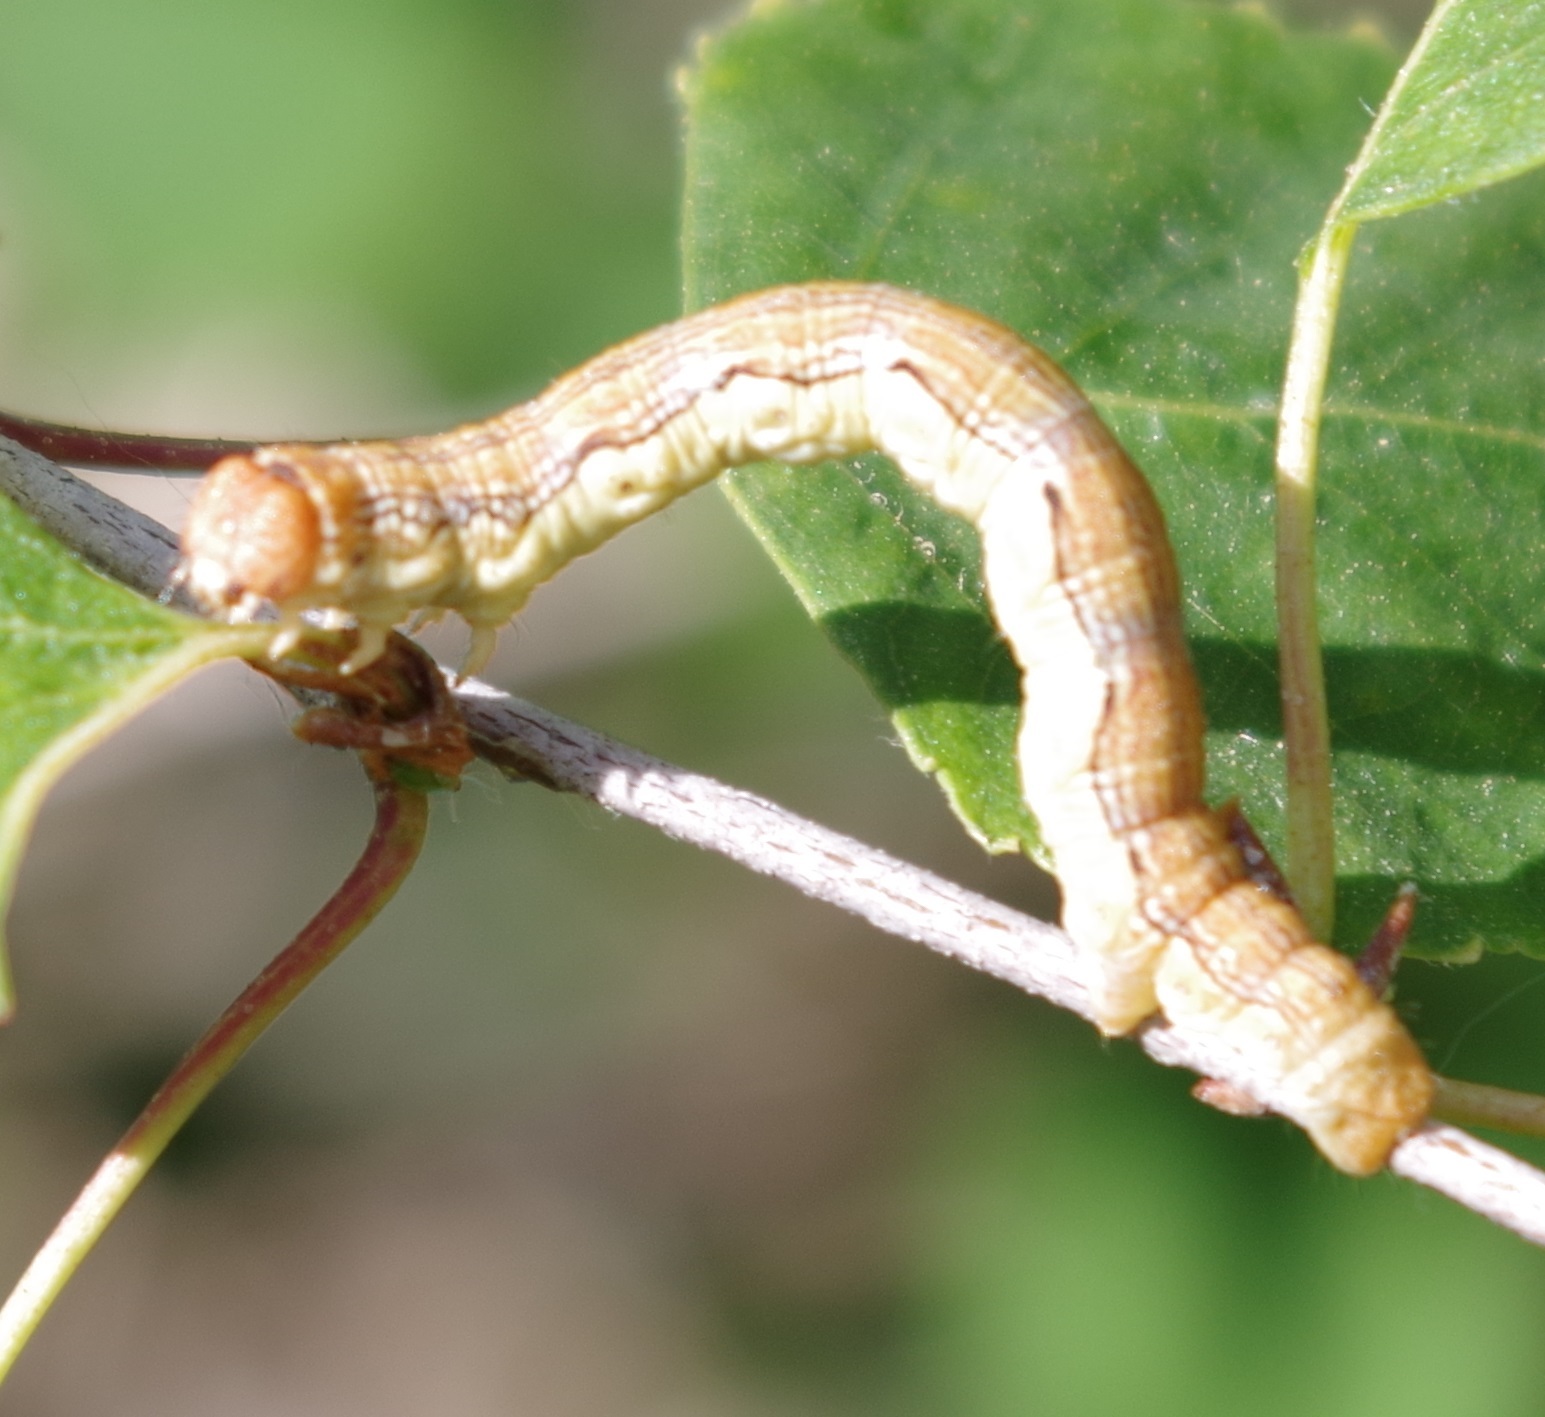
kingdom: Animalia
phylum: Arthropoda
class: Insecta
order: Lepidoptera
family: Geometridae
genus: Erannis
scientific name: Erannis defoliaria
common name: Mottled umber
